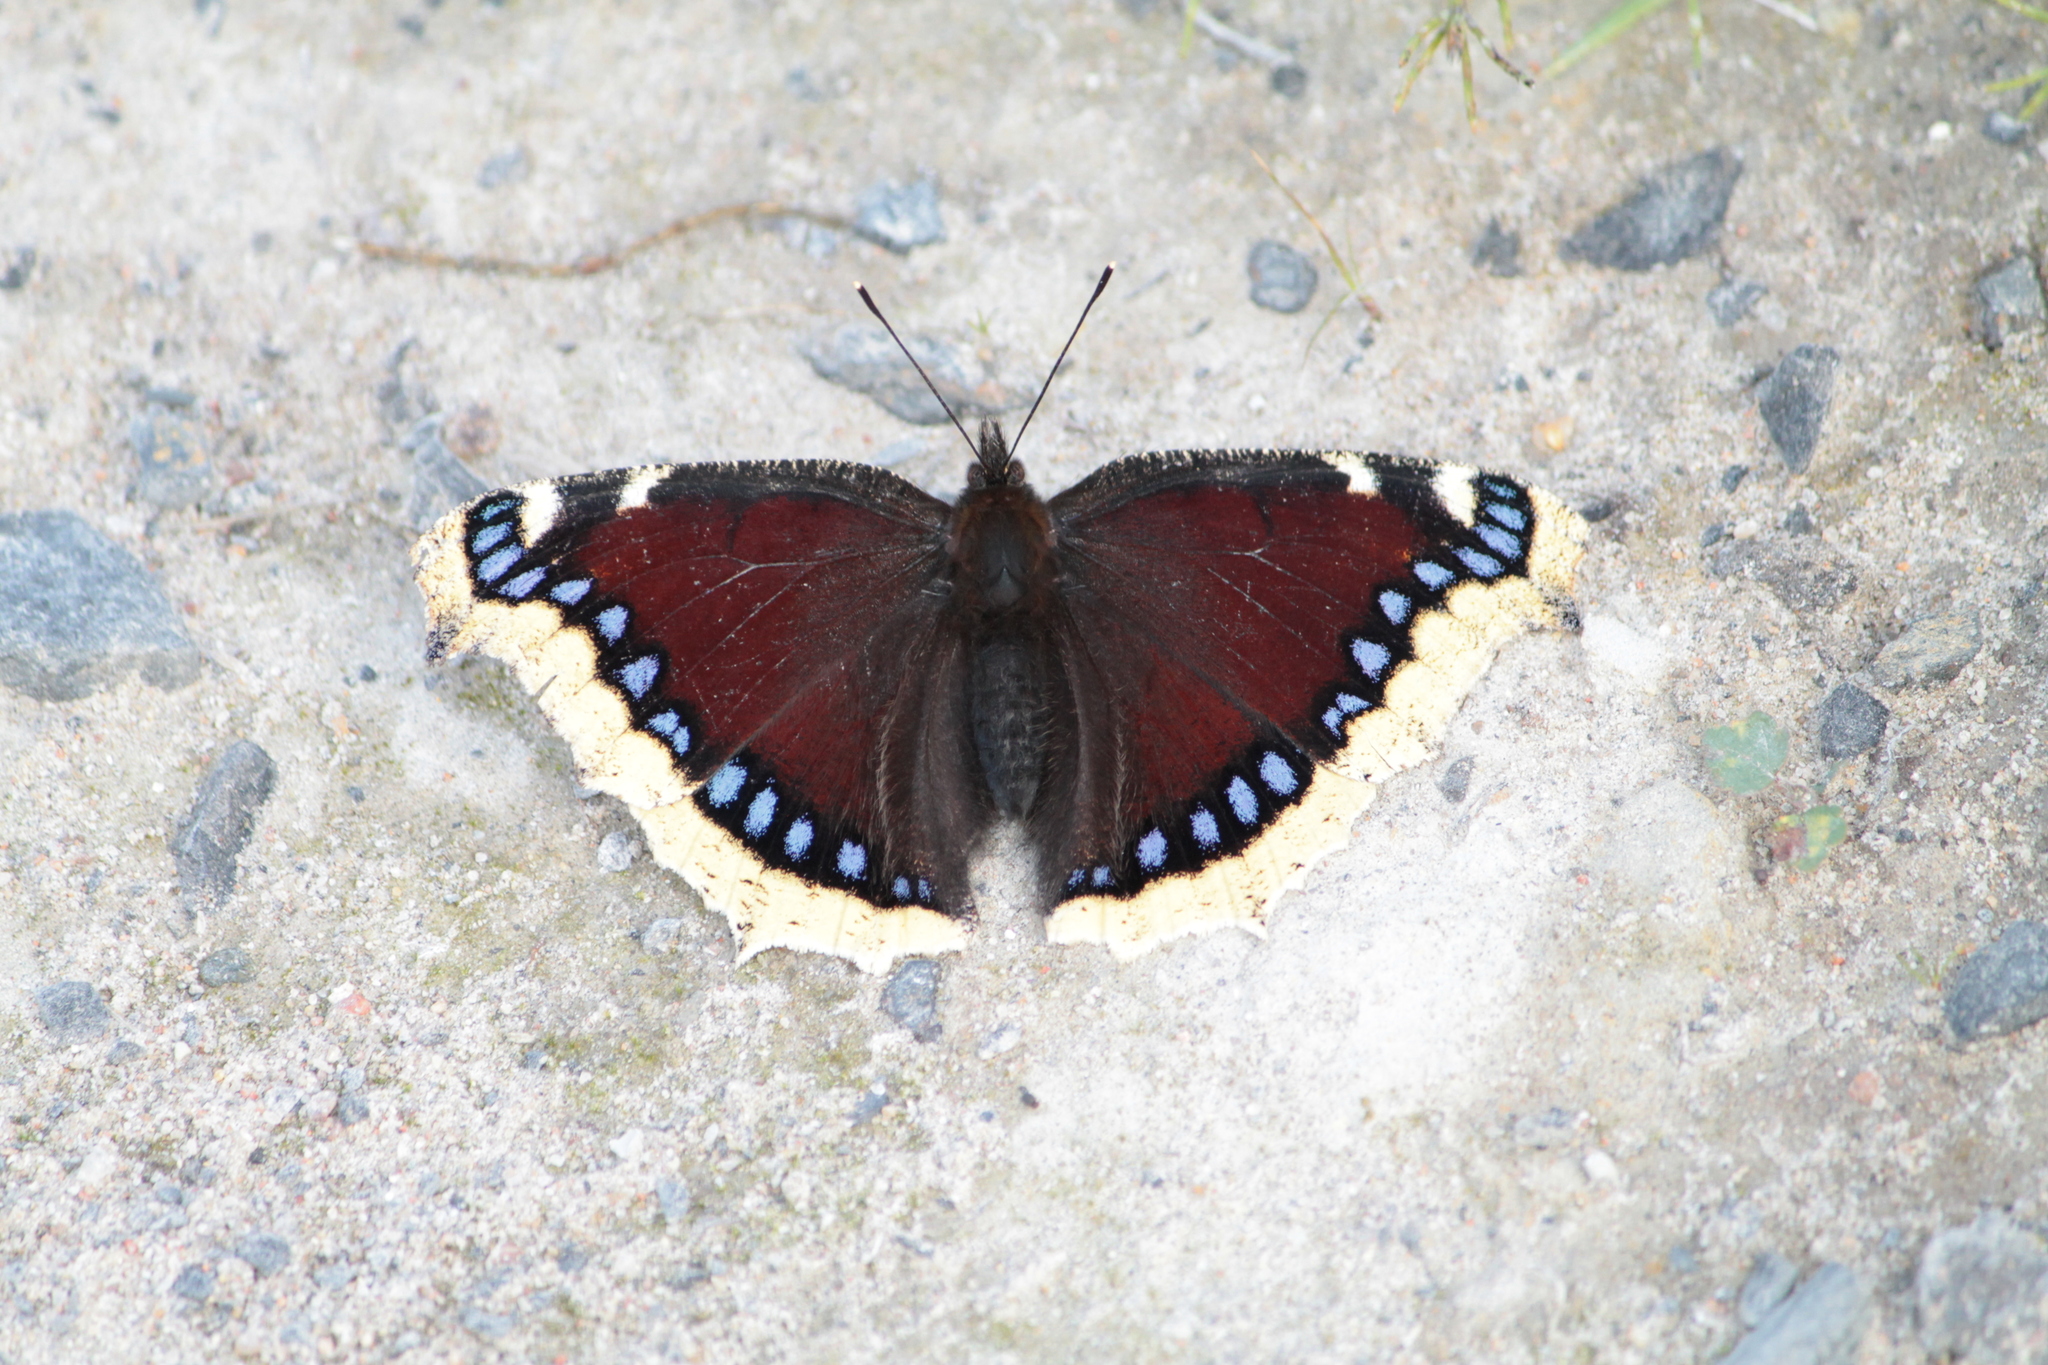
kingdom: Animalia
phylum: Arthropoda
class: Insecta
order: Lepidoptera
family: Nymphalidae
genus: Nymphalis
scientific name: Nymphalis antiopa
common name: Camberwell beauty
